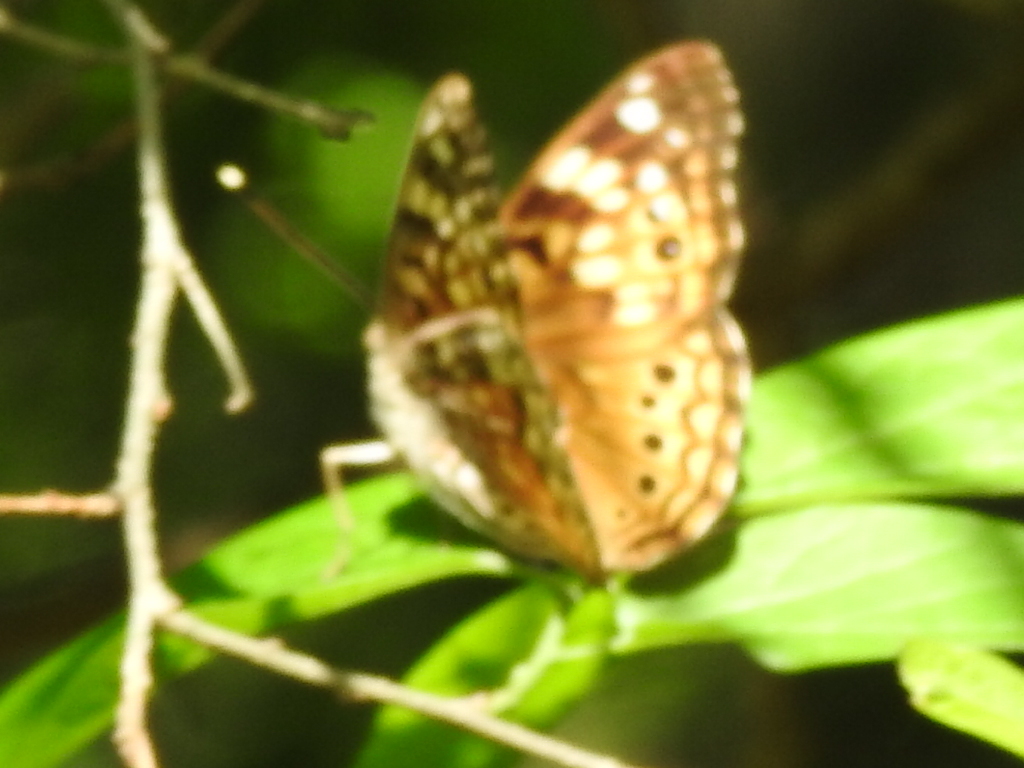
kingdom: Animalia
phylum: Arthropoda
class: Insecta
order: Lepidoptera
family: Nymphalidae
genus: Asterocampa
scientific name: Asterocampa celtis
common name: Hackberry emperor
